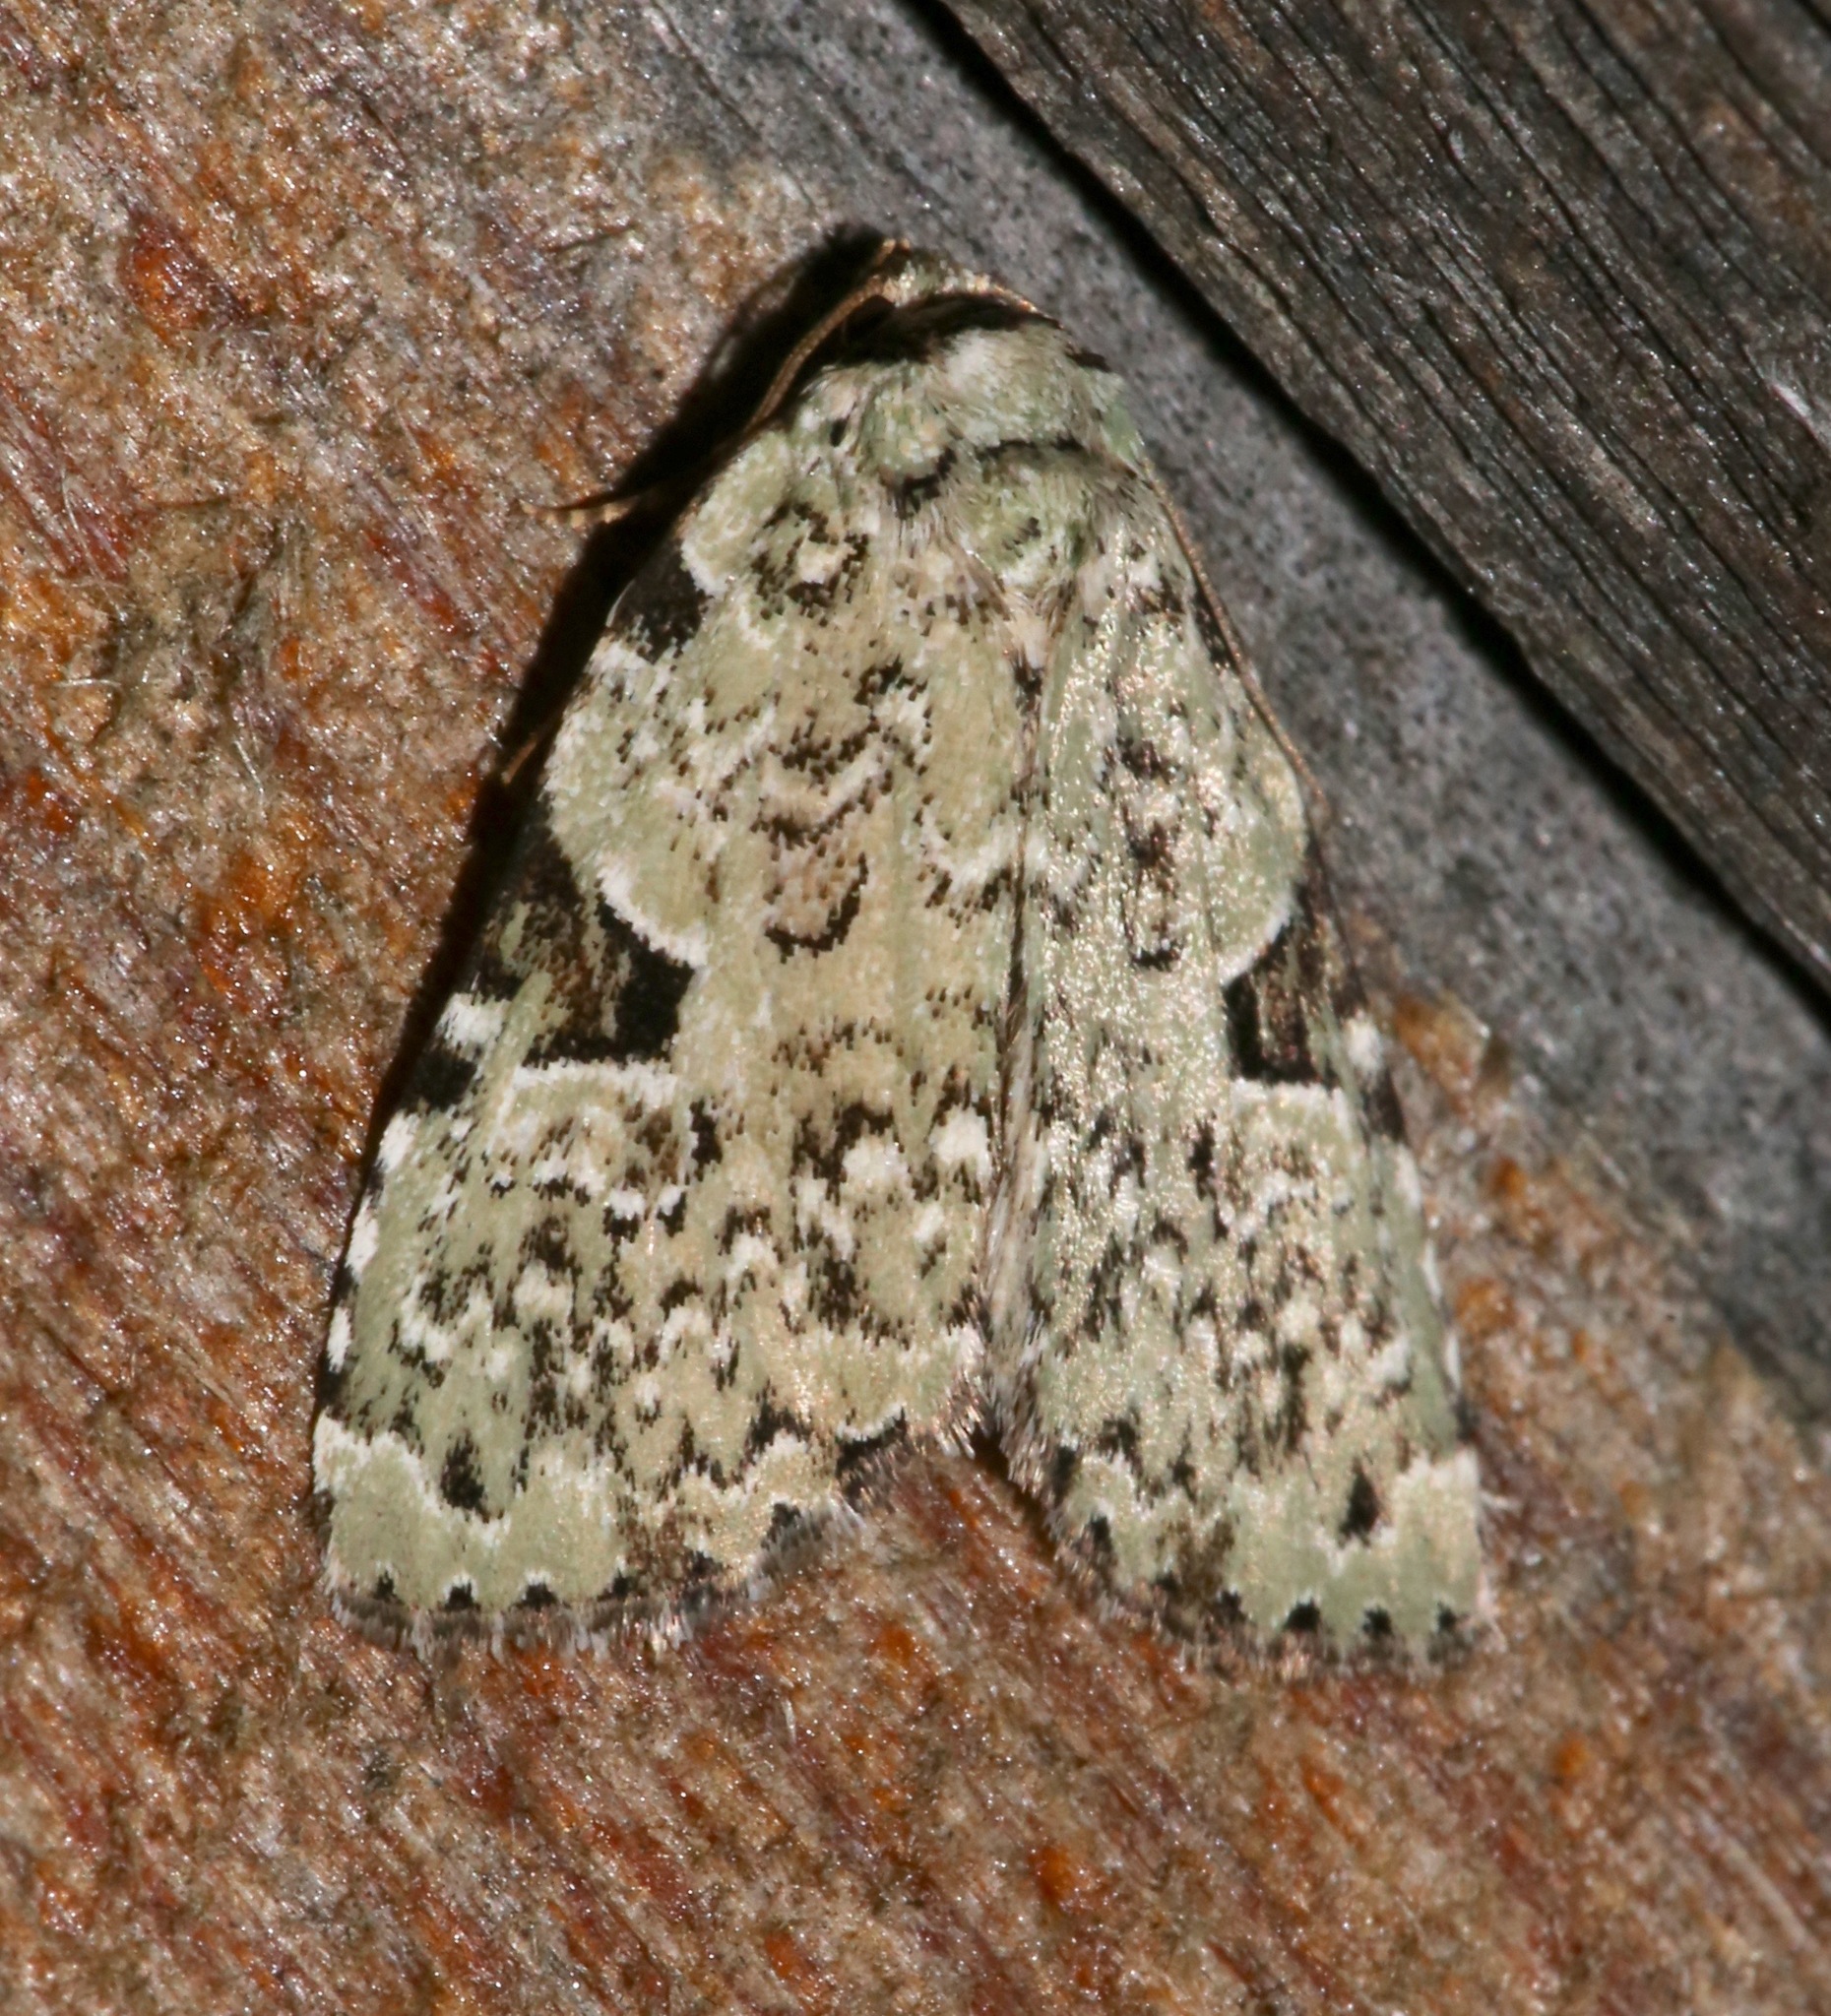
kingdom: Animalia
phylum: Arthropoda
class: Insecta
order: Lepidoptera
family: Noctuidae
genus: Leuconycta
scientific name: Leuconycta diphteroides
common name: Green leuconycta moth
